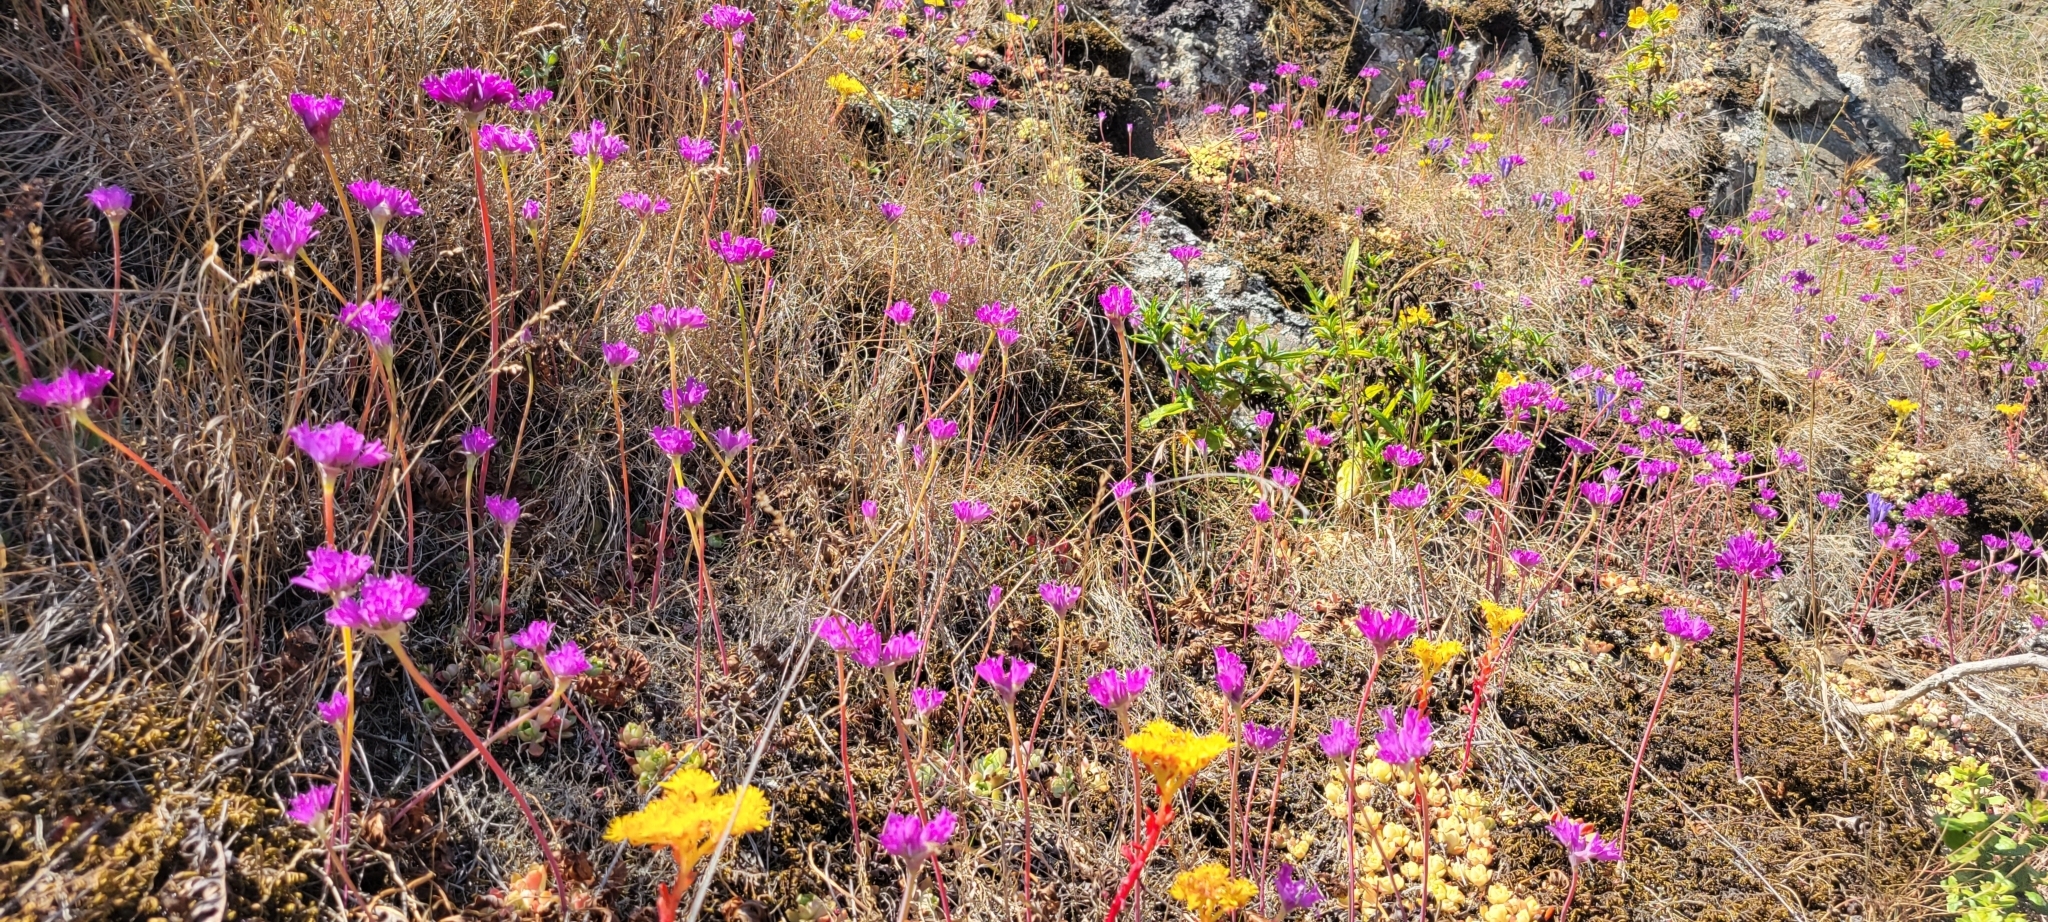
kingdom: Plantae
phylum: Tracheophyta
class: Liliopsida
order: Asparagales
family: Amaryllidaceae
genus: Allium
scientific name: Allium dichlamydeum
